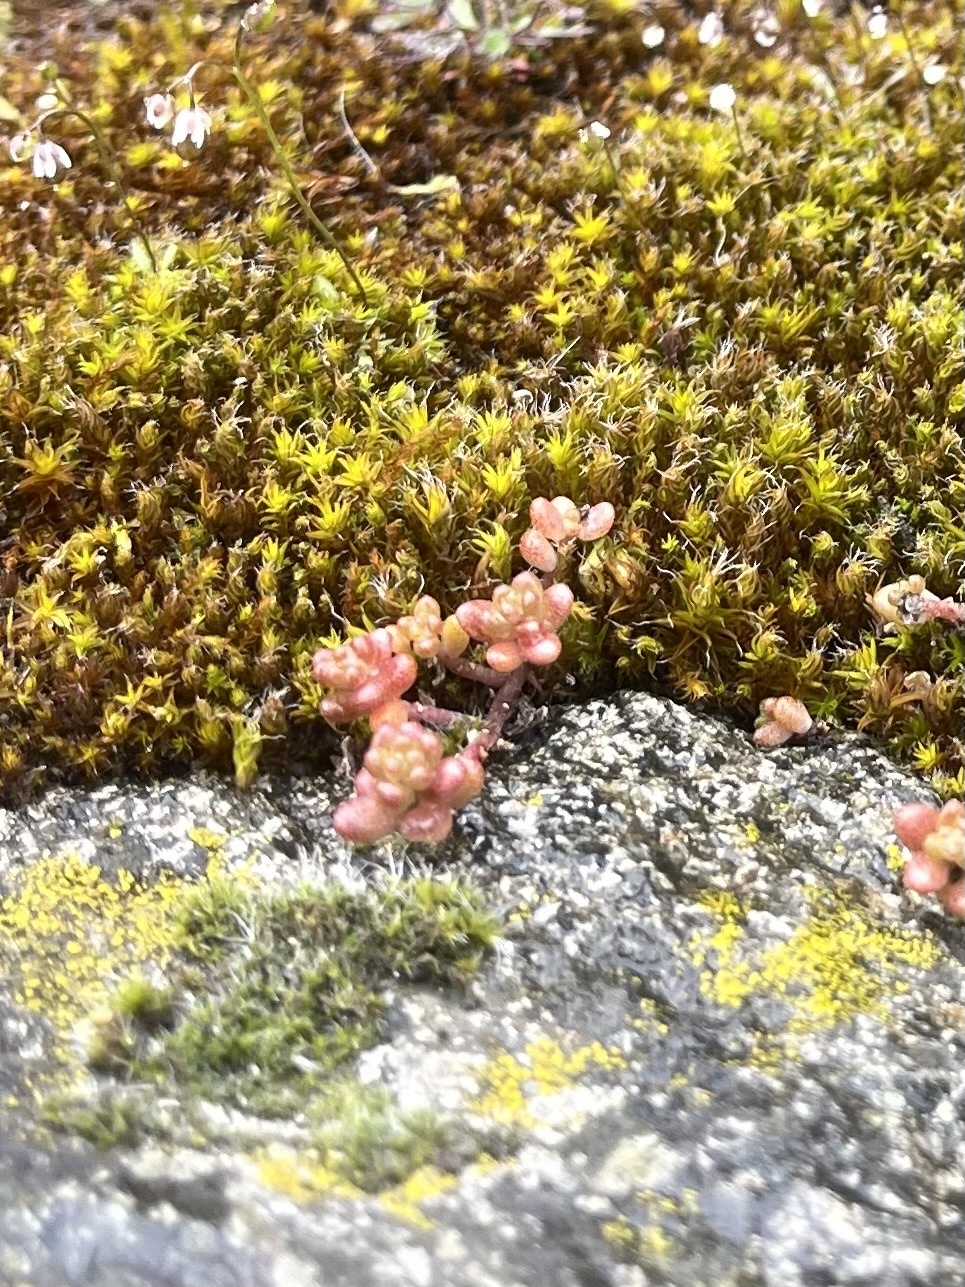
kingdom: Plantae
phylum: Tracheophyta
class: Magnoliopsida
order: Saxifragales
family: Crassulaceae
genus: Sedum
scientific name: Sedum album
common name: White stonecrop
